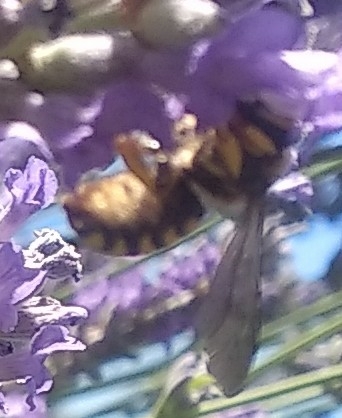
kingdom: Animalia
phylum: Arthropoda
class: Insecta
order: Hymenoptera
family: Megachilidae
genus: Anthidium
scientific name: Anthidium
